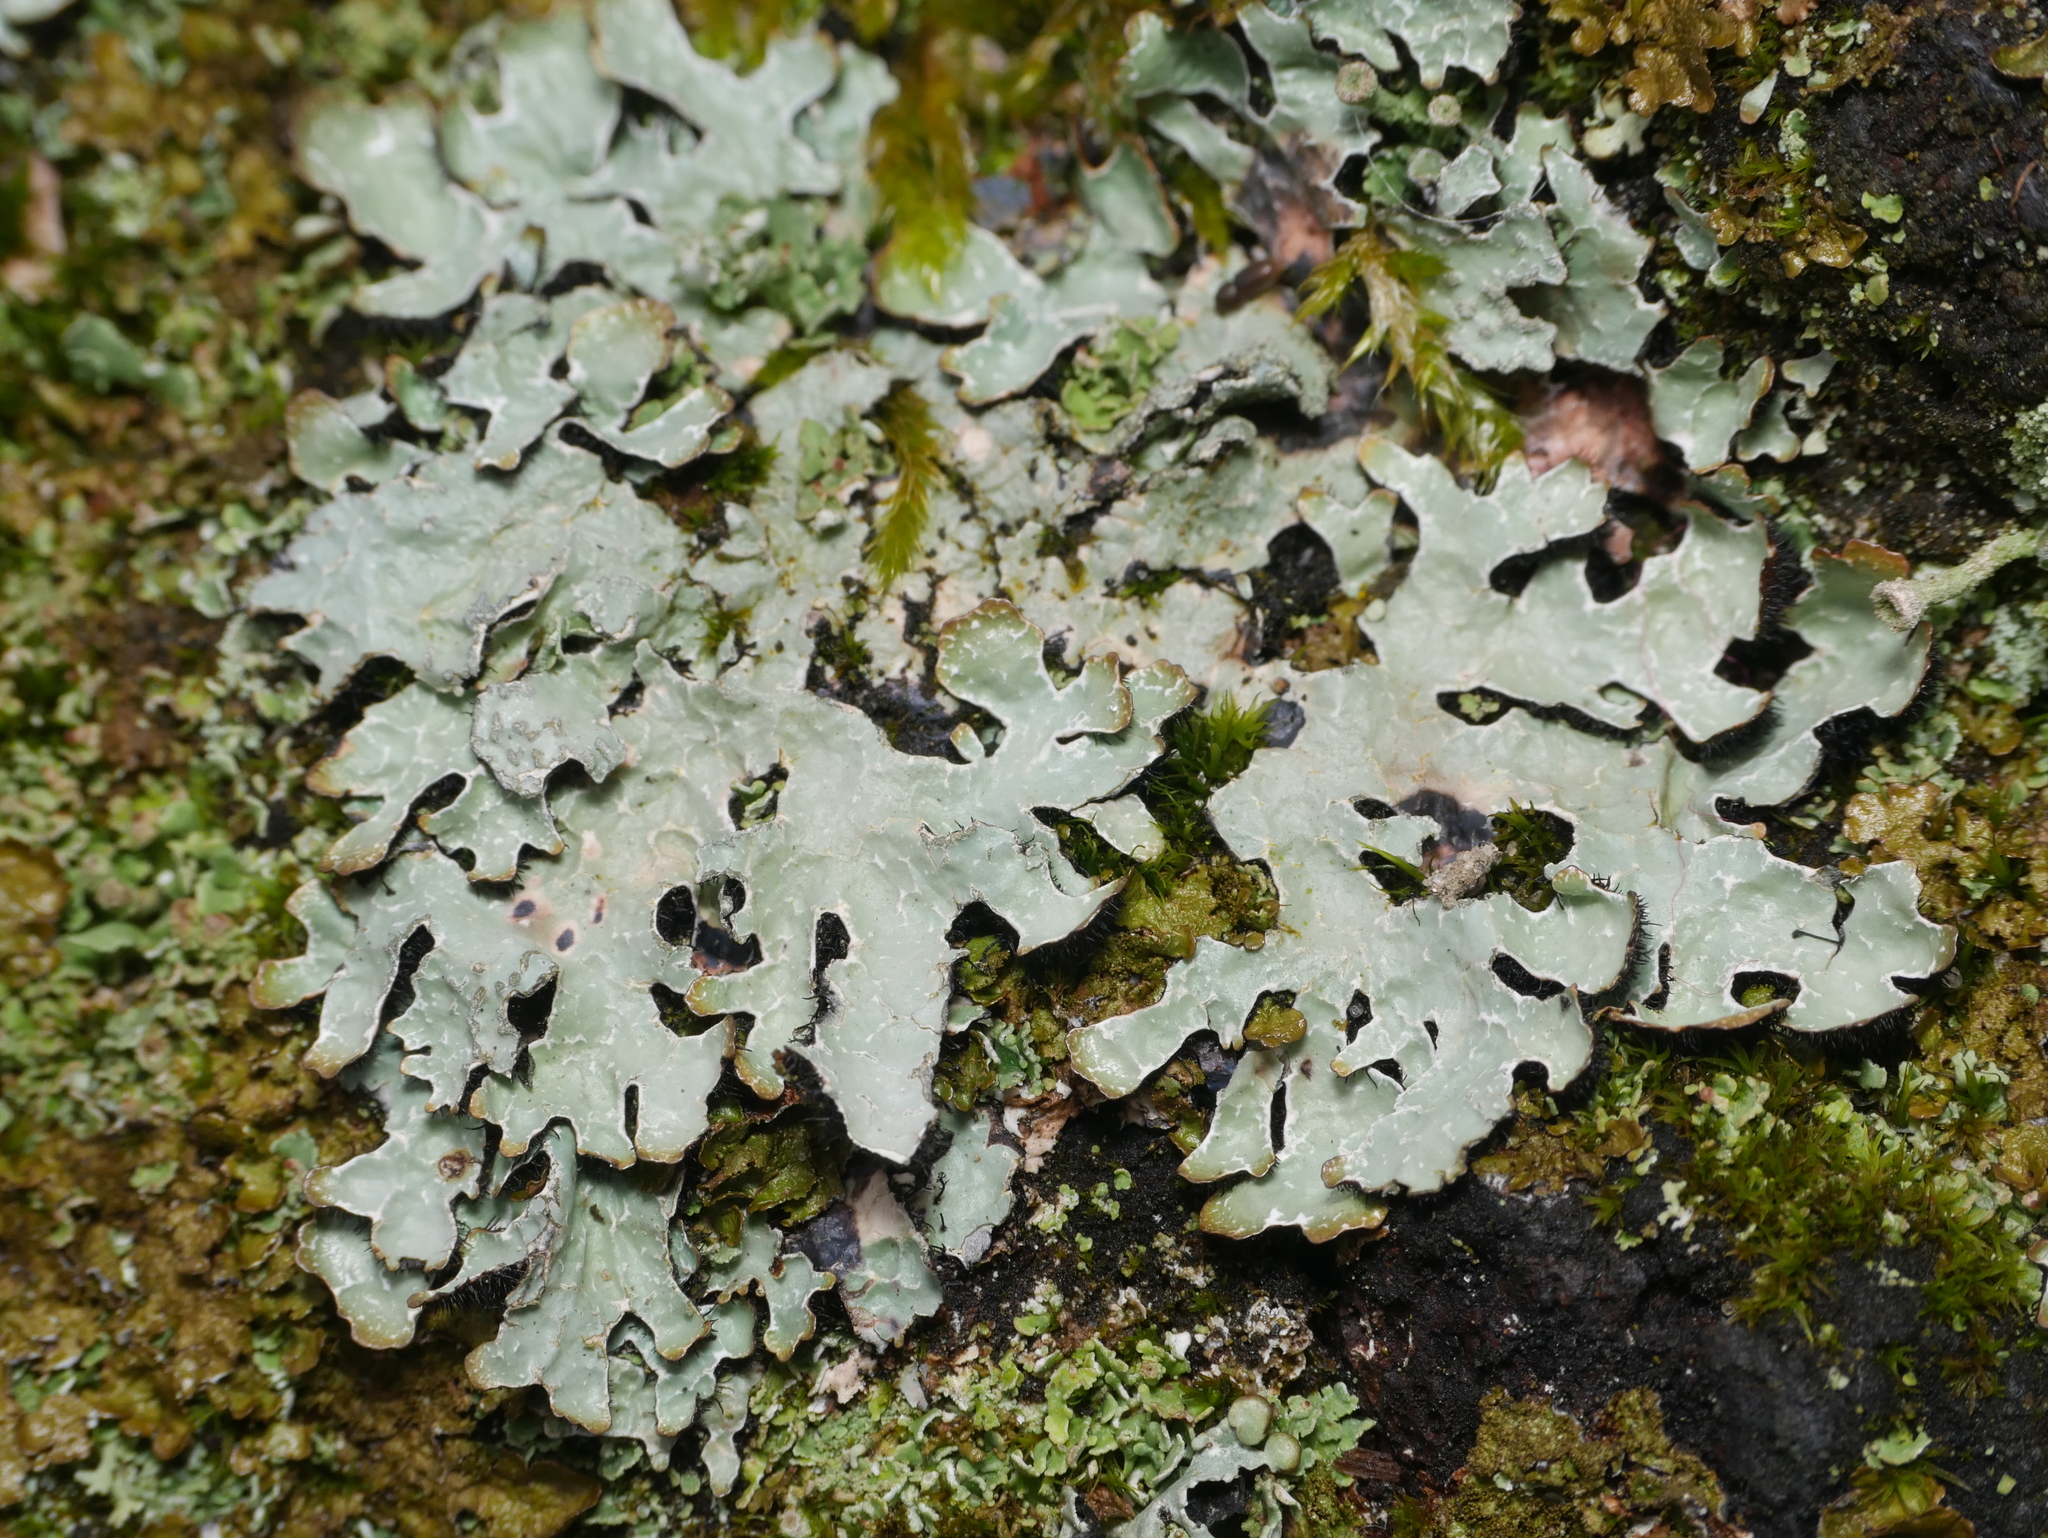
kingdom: Fungi
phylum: Ascomycota
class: Lecanoromycetes
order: Lecanorales
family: Parmeliaceae
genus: Parmelia
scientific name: Parmelia sulcata
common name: Netted shield lichen
